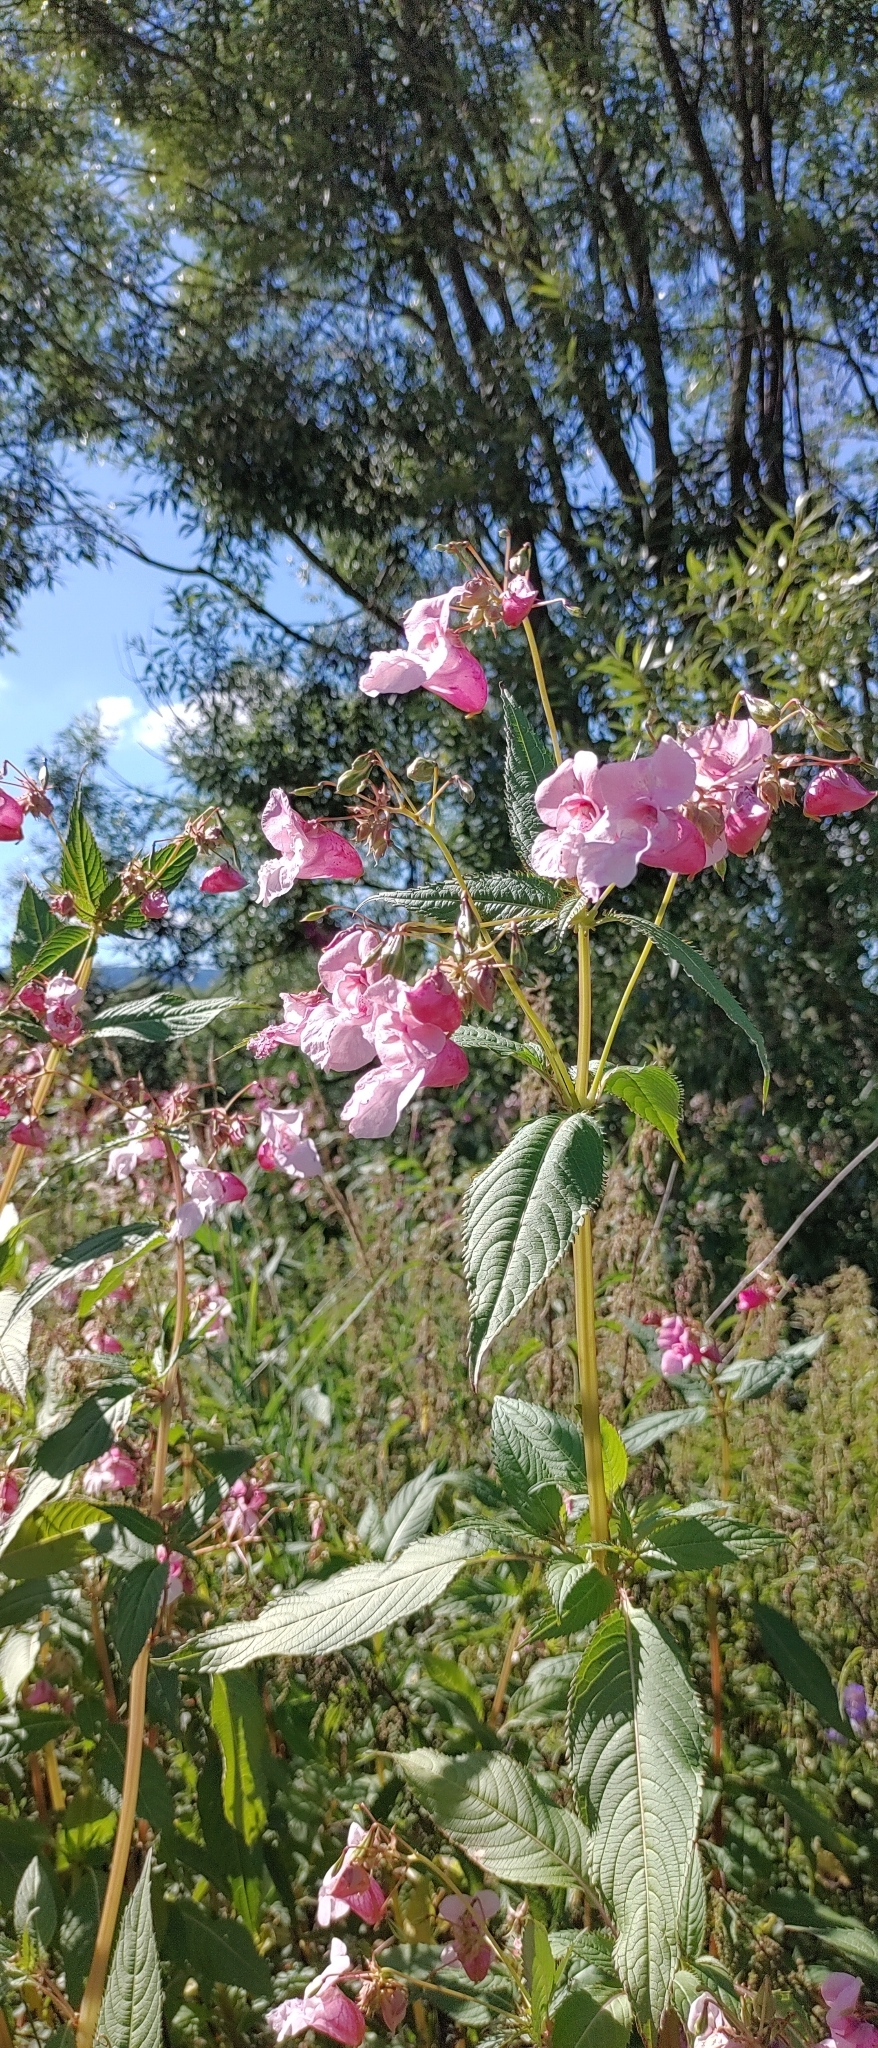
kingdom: Plantae
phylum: Tracheophyta
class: Magnoliopsida
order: Ericales
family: Balsaminaceae
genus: Impatiens
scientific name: Impatiens glandulifera
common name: Himalayan balsam
